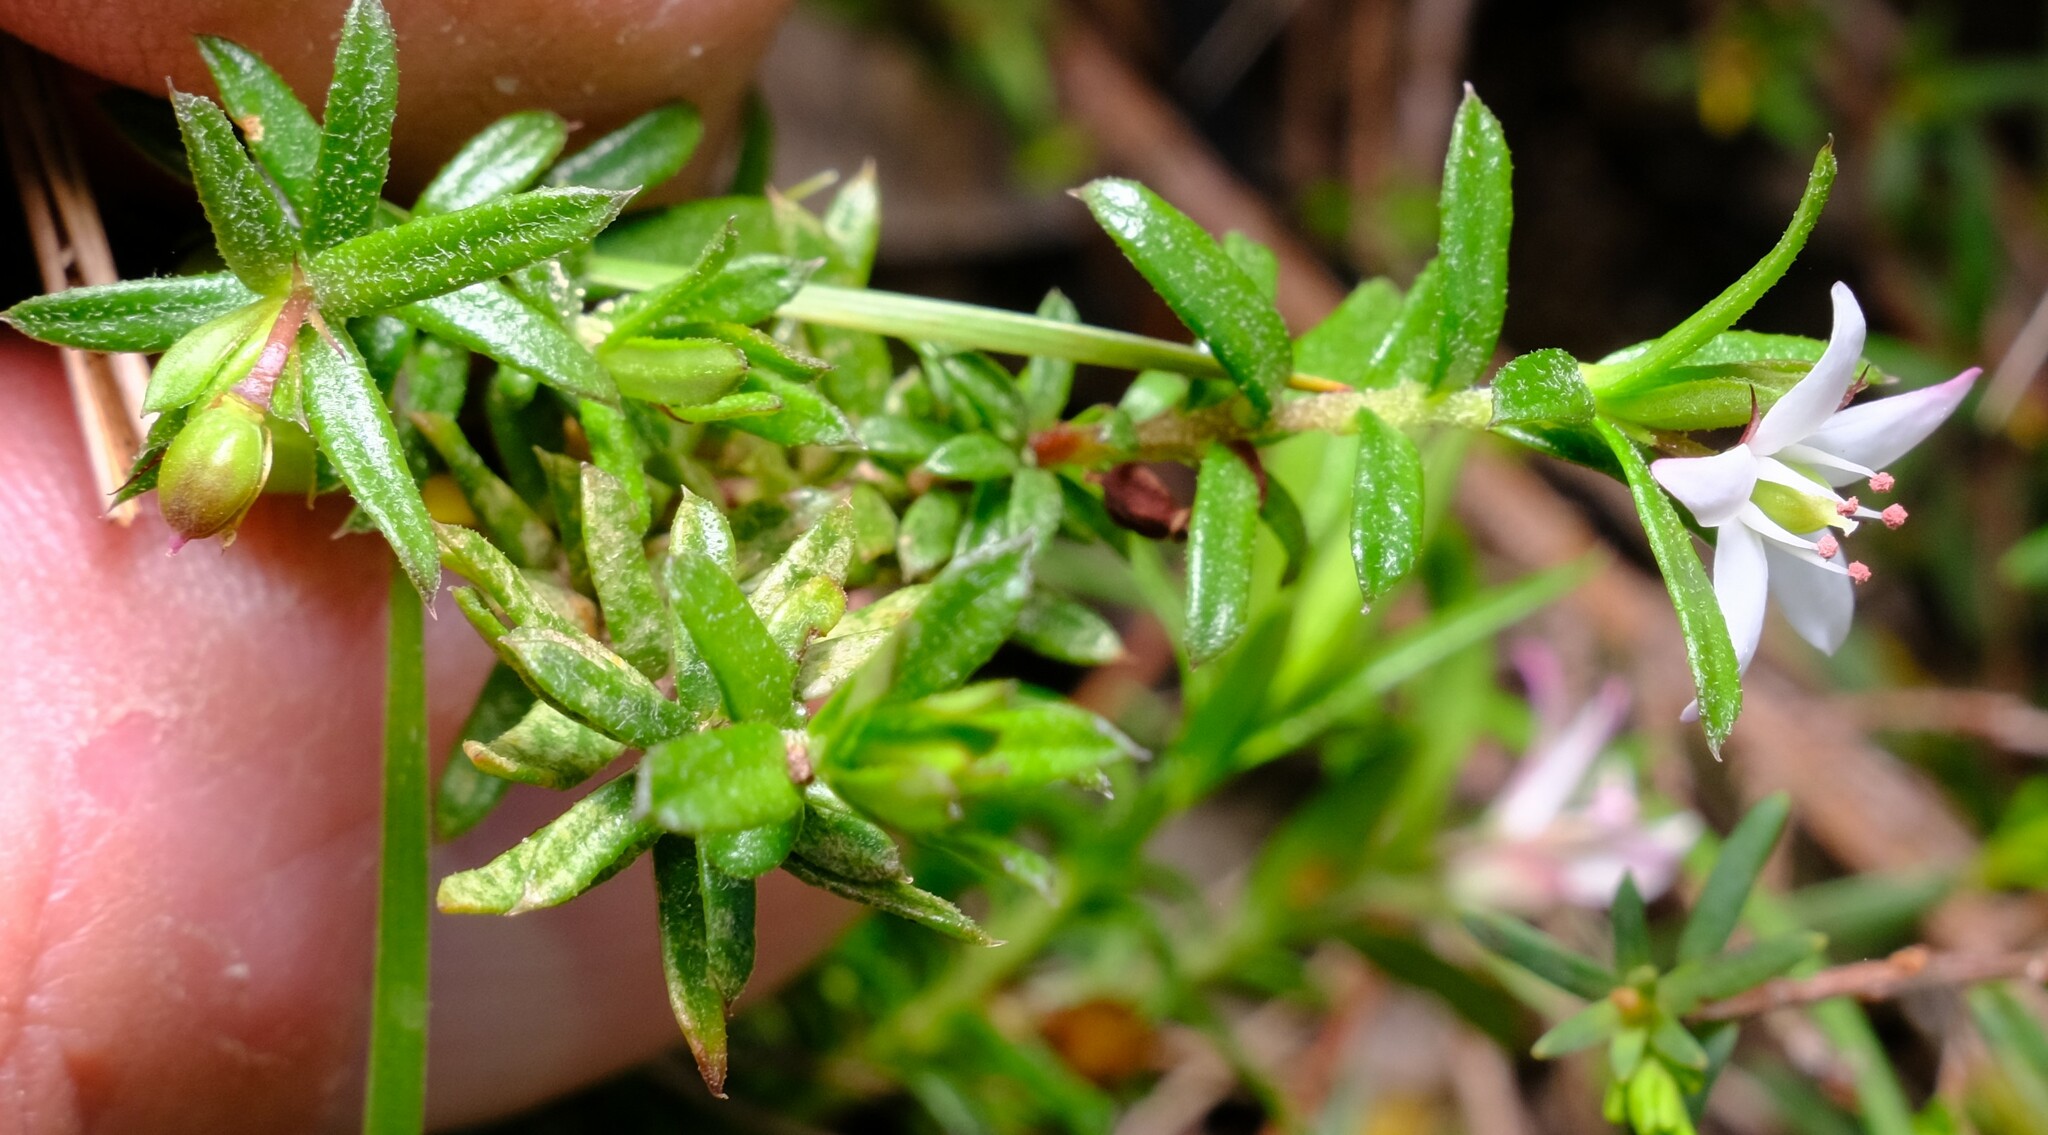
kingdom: Plantae
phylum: Tracheophyta
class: Magnoliopsida
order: Apiales
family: Pittosporaceae
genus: Rhytidosporum
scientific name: Rhytidosporum procumbens
